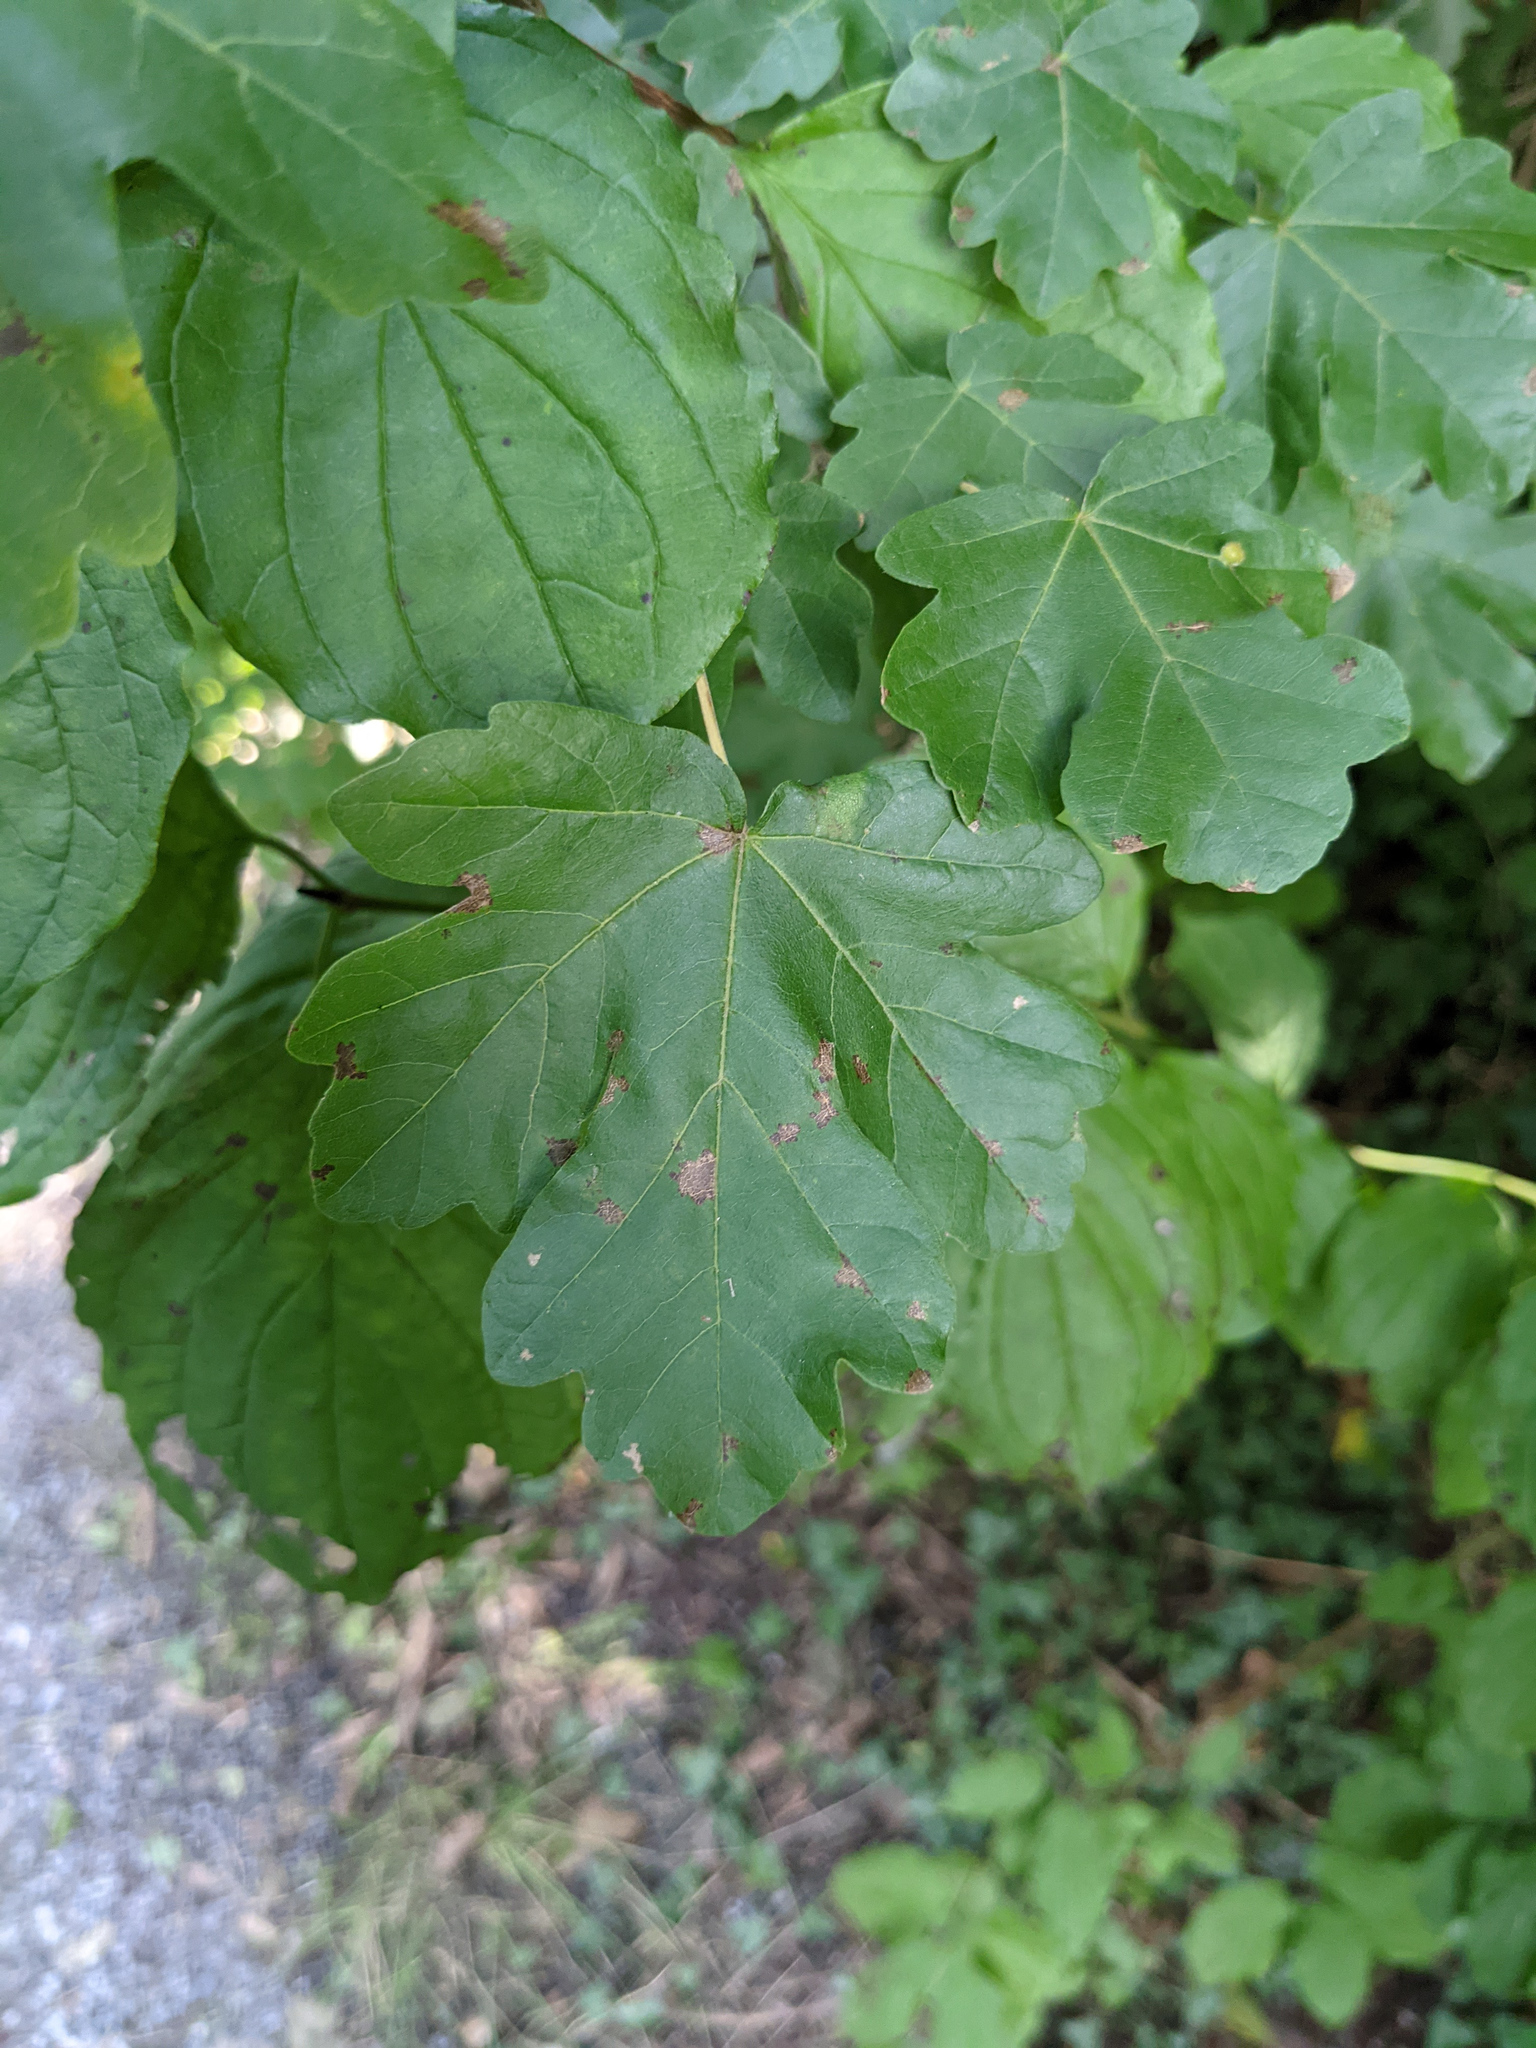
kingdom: Plantae
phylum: Tracheophyta
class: Magnoliopsida
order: Sapindales
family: Sapindaceae
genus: Acer
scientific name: Acer campestre
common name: Field maple
